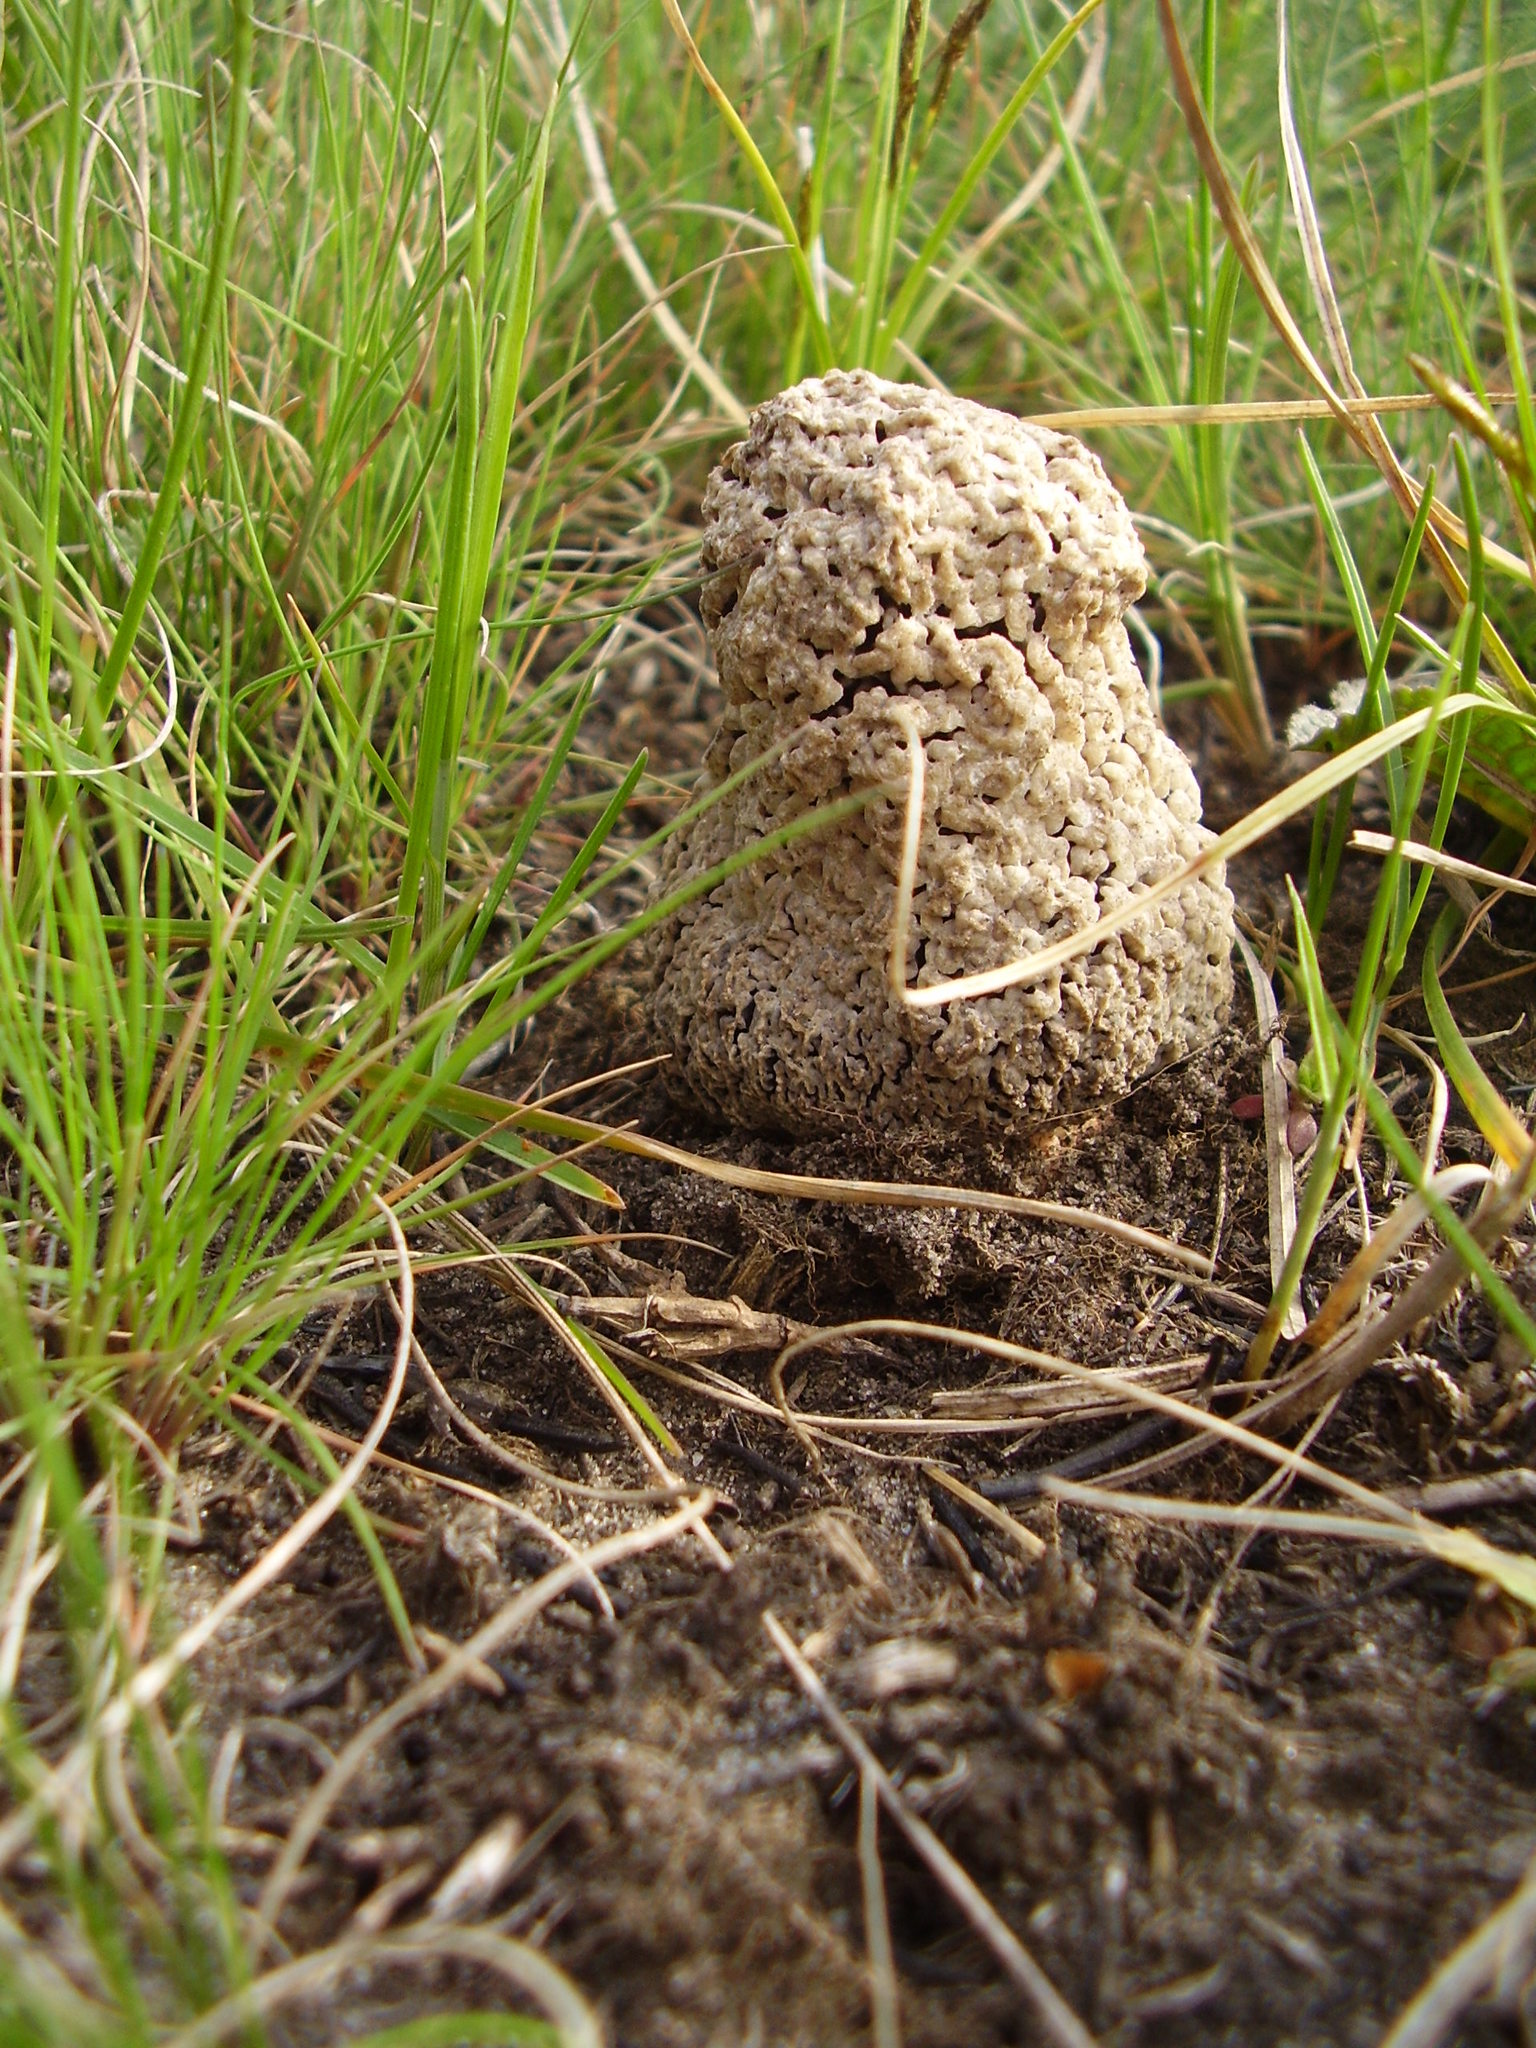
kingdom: Fungi
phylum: Ascomycota
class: Pezizomycetes
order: Pezizales
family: Morchellaceae
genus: Morchella
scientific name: Morchella steppicola
